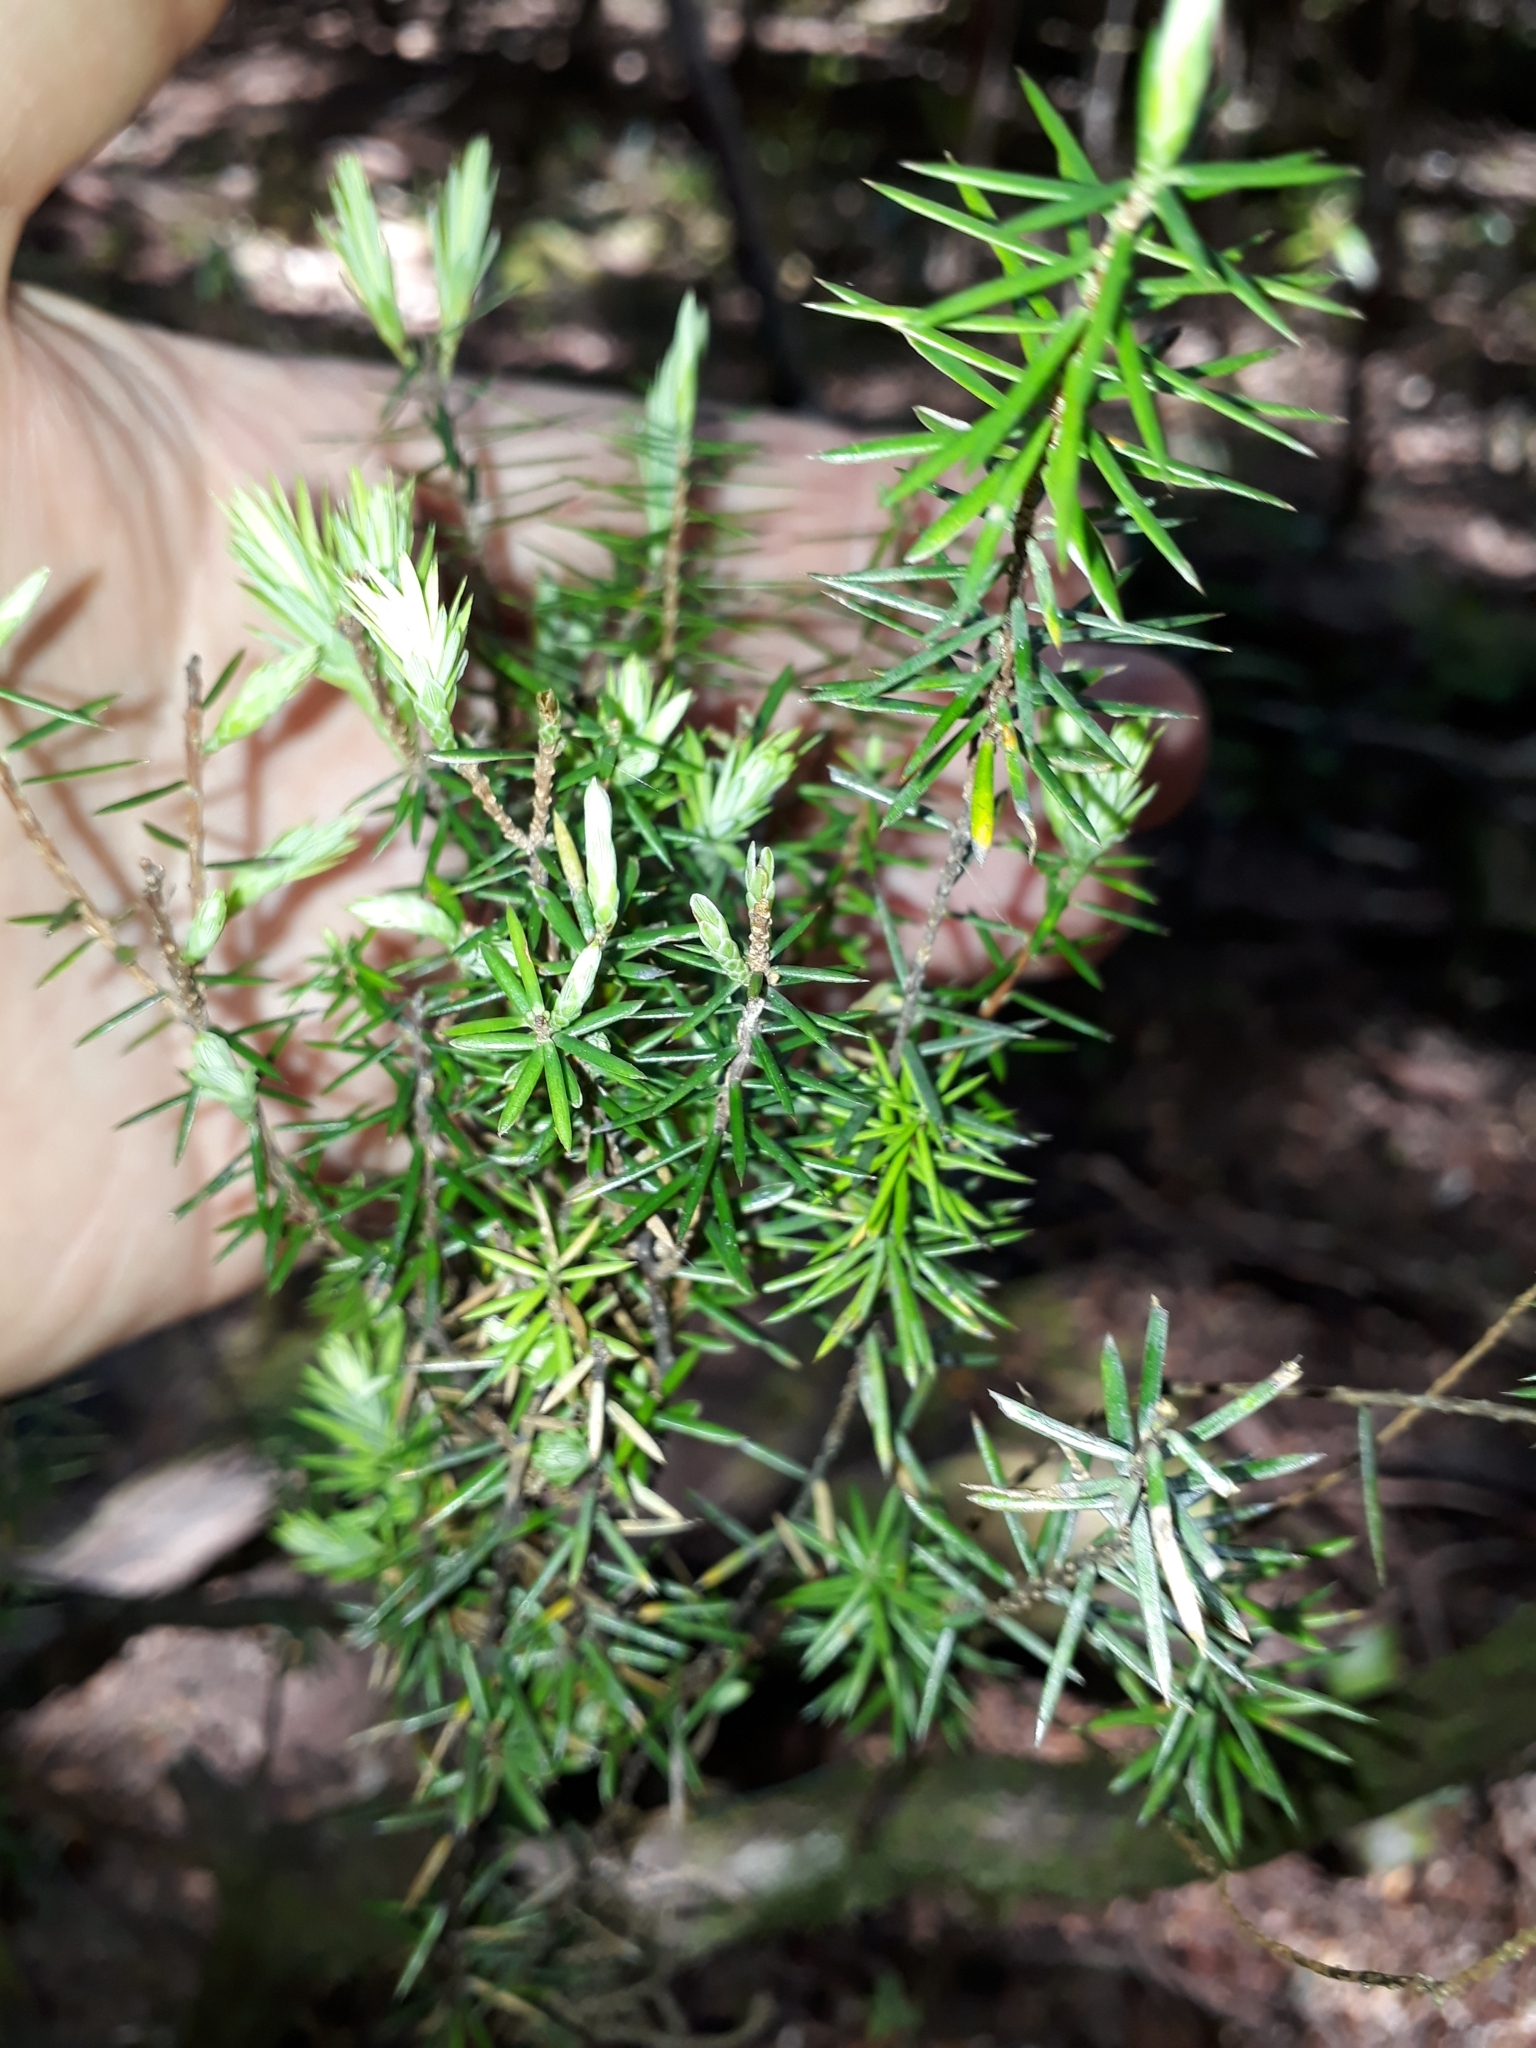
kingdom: Plantae
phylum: Tracheophyta
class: Magnoliopsida
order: Ericales
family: Ericaceae
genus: Leptecophylla
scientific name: Leptecophylla juniperina
